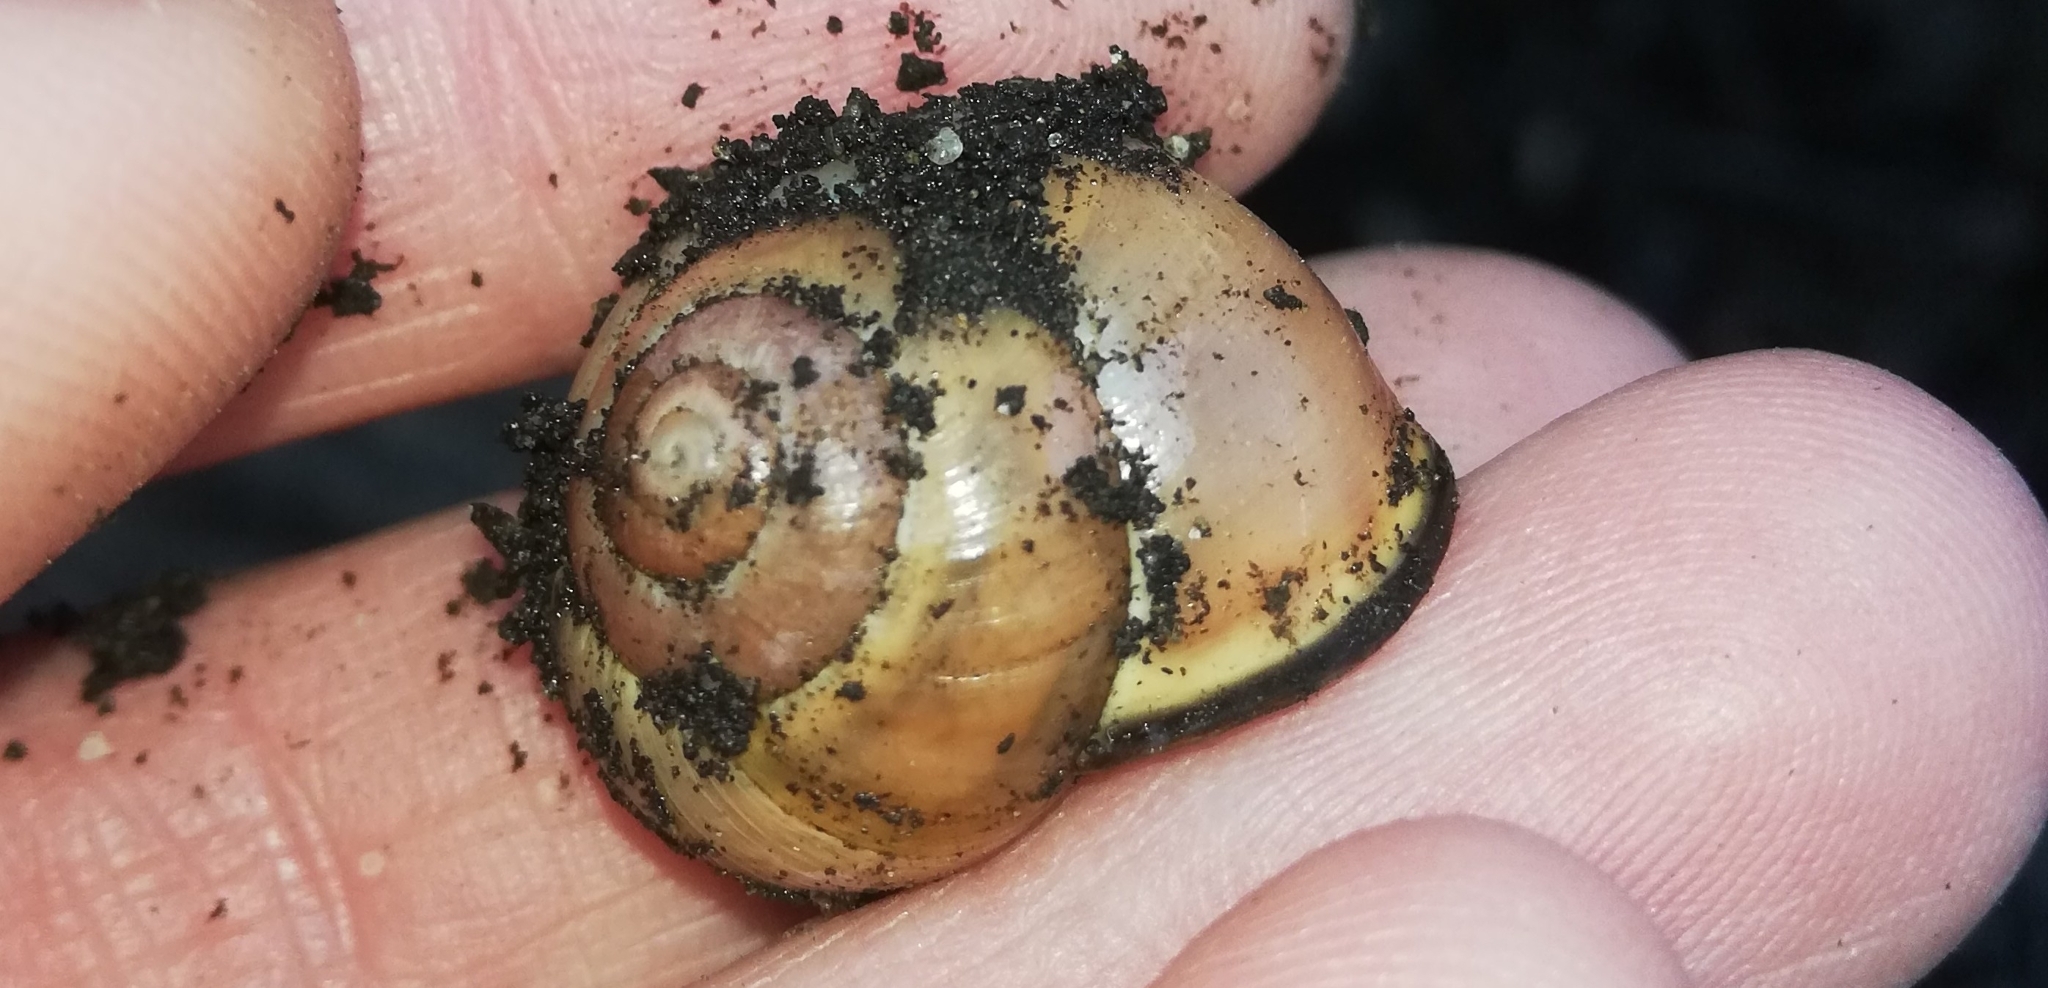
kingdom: Animalia
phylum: Mollusca
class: Gastropoda
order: Stylommatophora
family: Helicidae
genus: Cepaea
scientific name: Cepaea nemoralis
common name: Grovesnail
